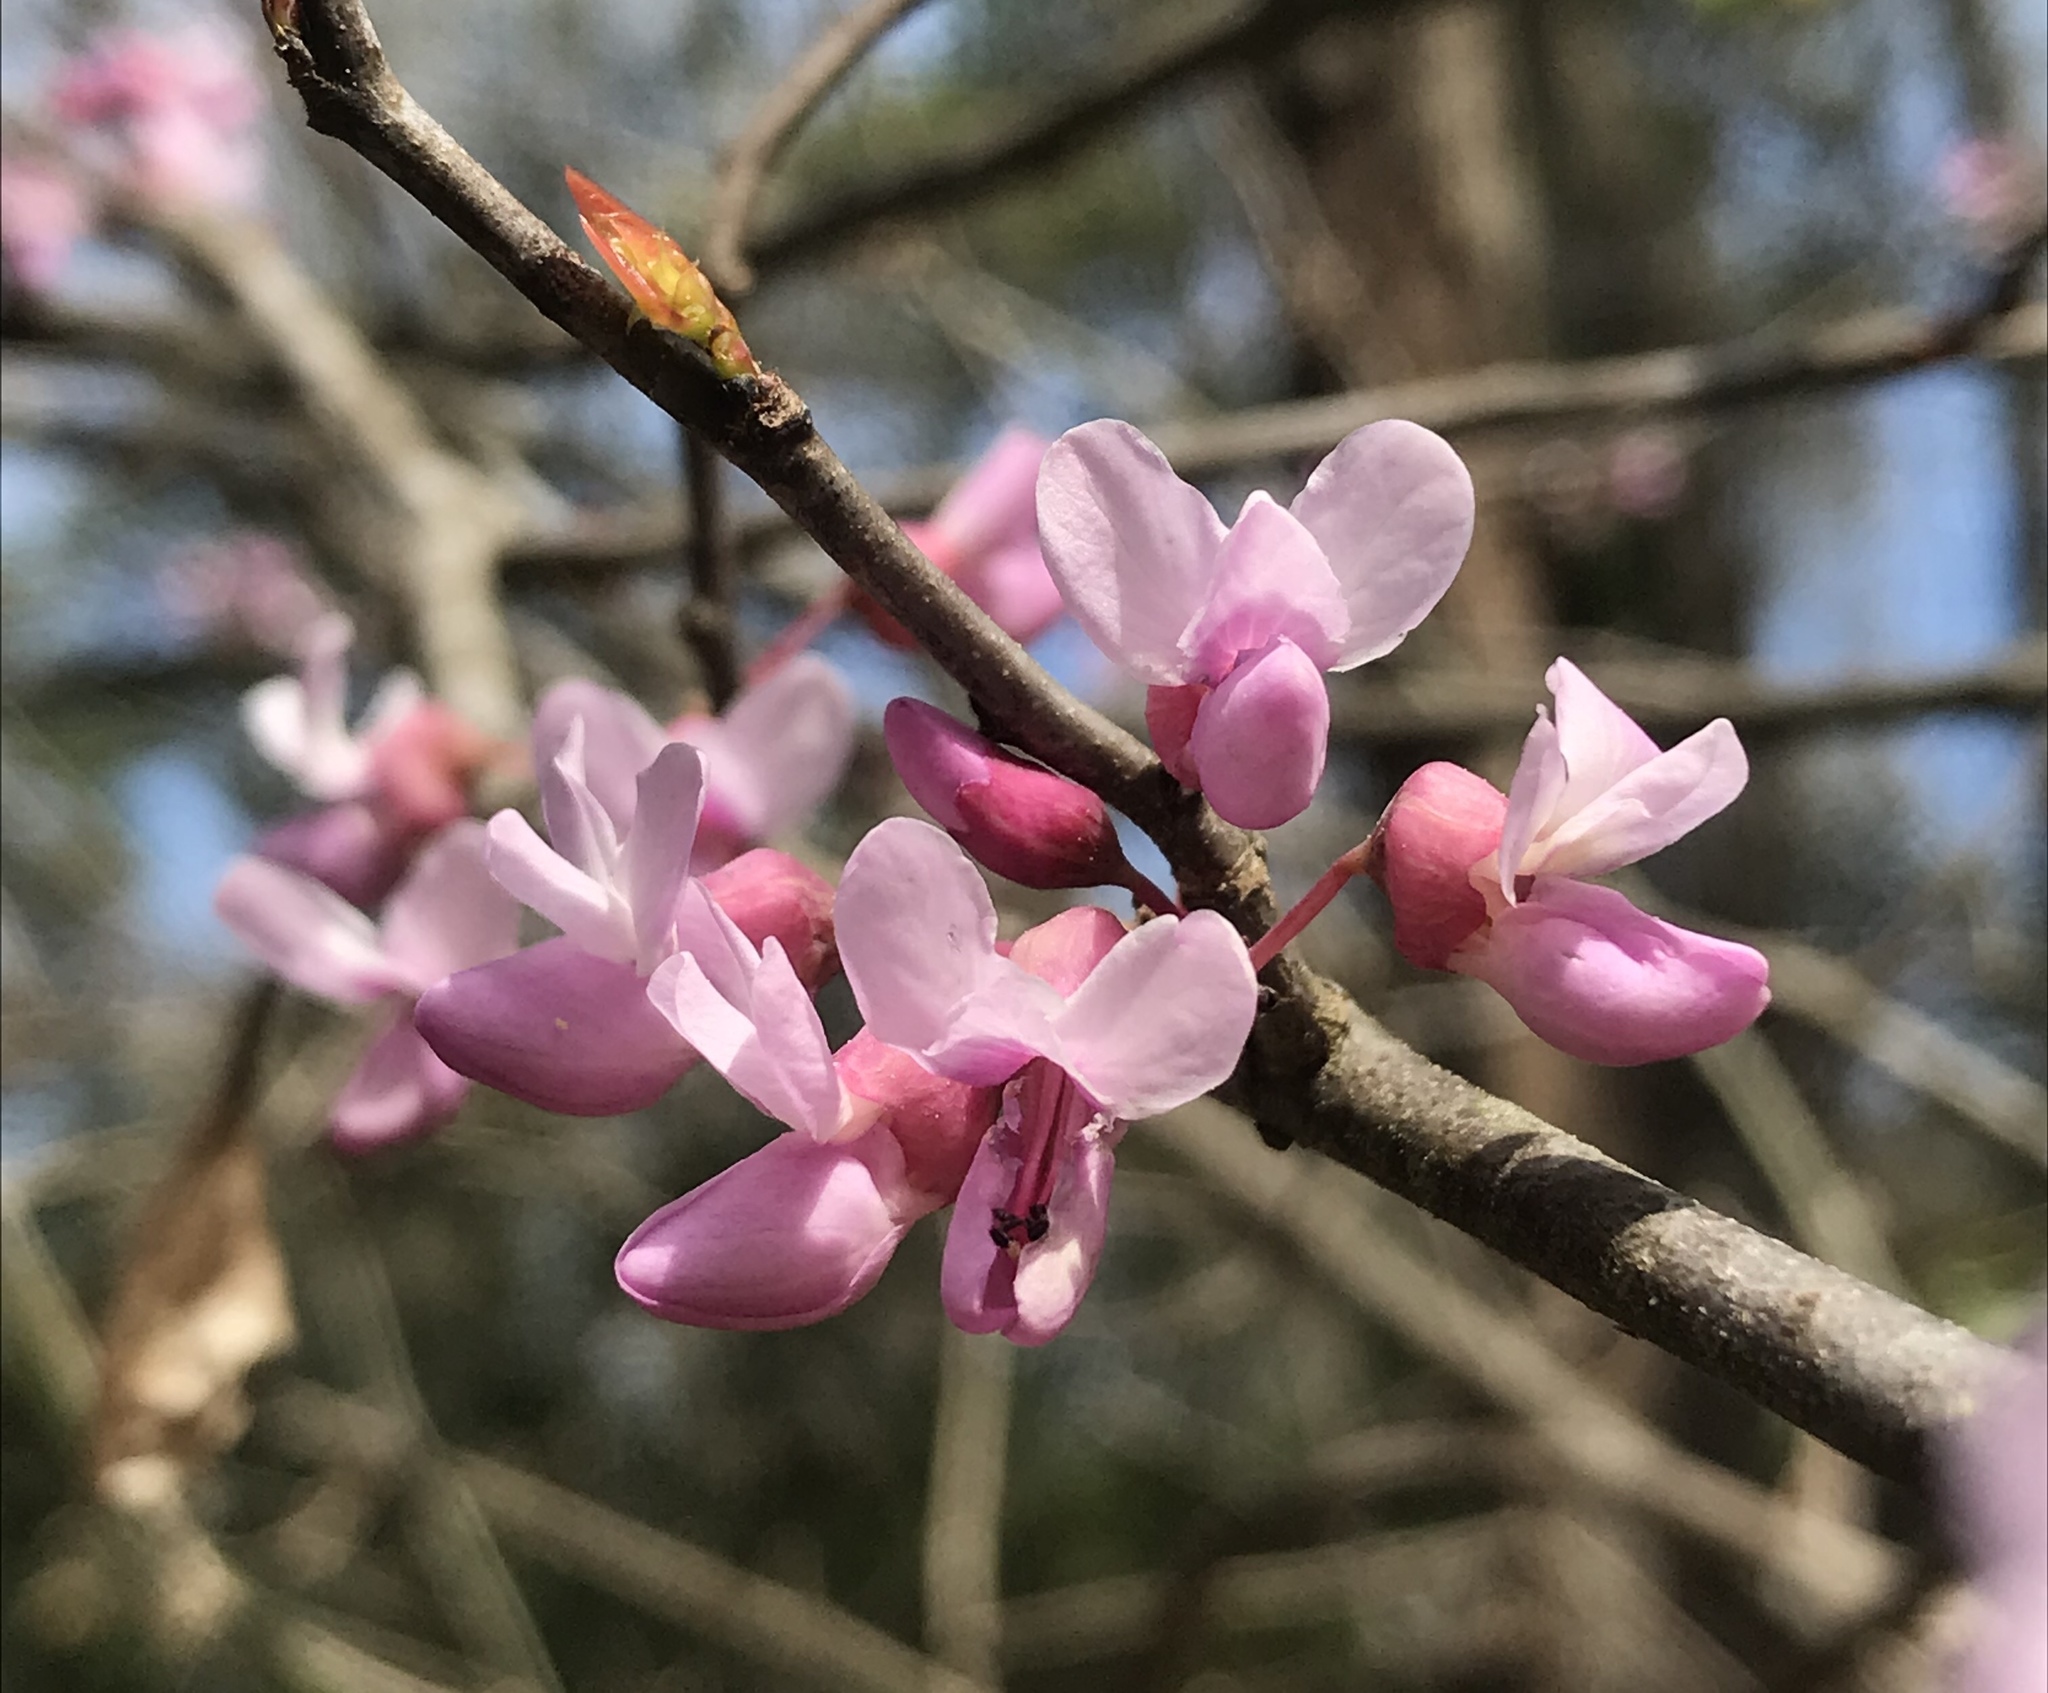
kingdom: Plantae
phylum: Tracheophyta
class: Magnoliopsida
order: Fabales
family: Fabaceae
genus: Cercis
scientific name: Cercis canadensis
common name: Eastern redbud
